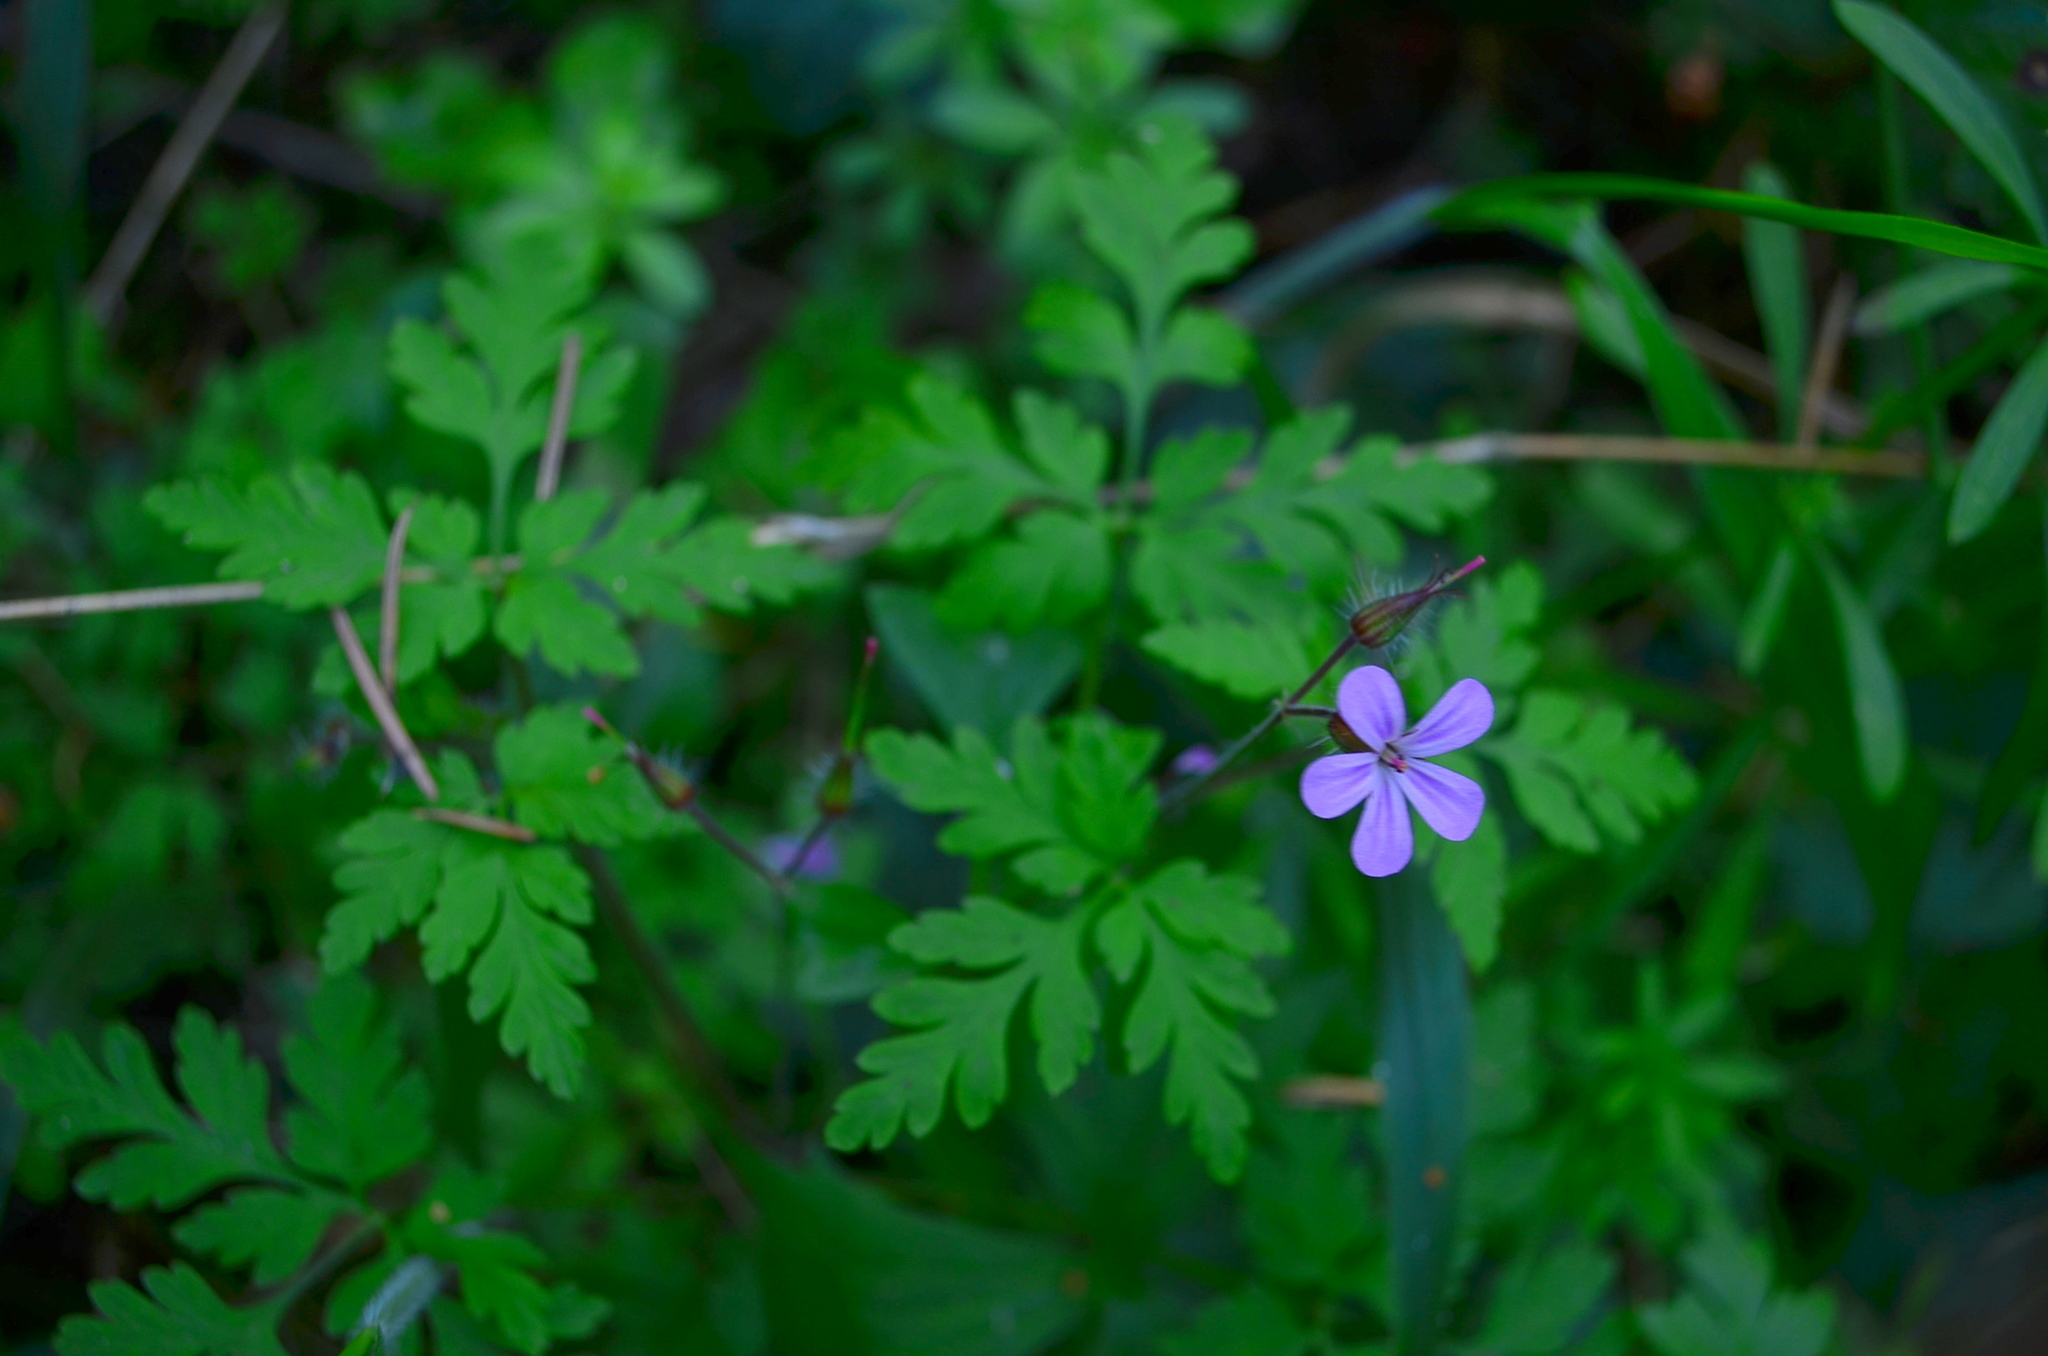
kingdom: Plantae
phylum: Tracheophyta
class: Magnoliopsida
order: Geraniales
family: Geraniaceae
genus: Geranium
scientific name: Geranium robertianum
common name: Herb-robert
